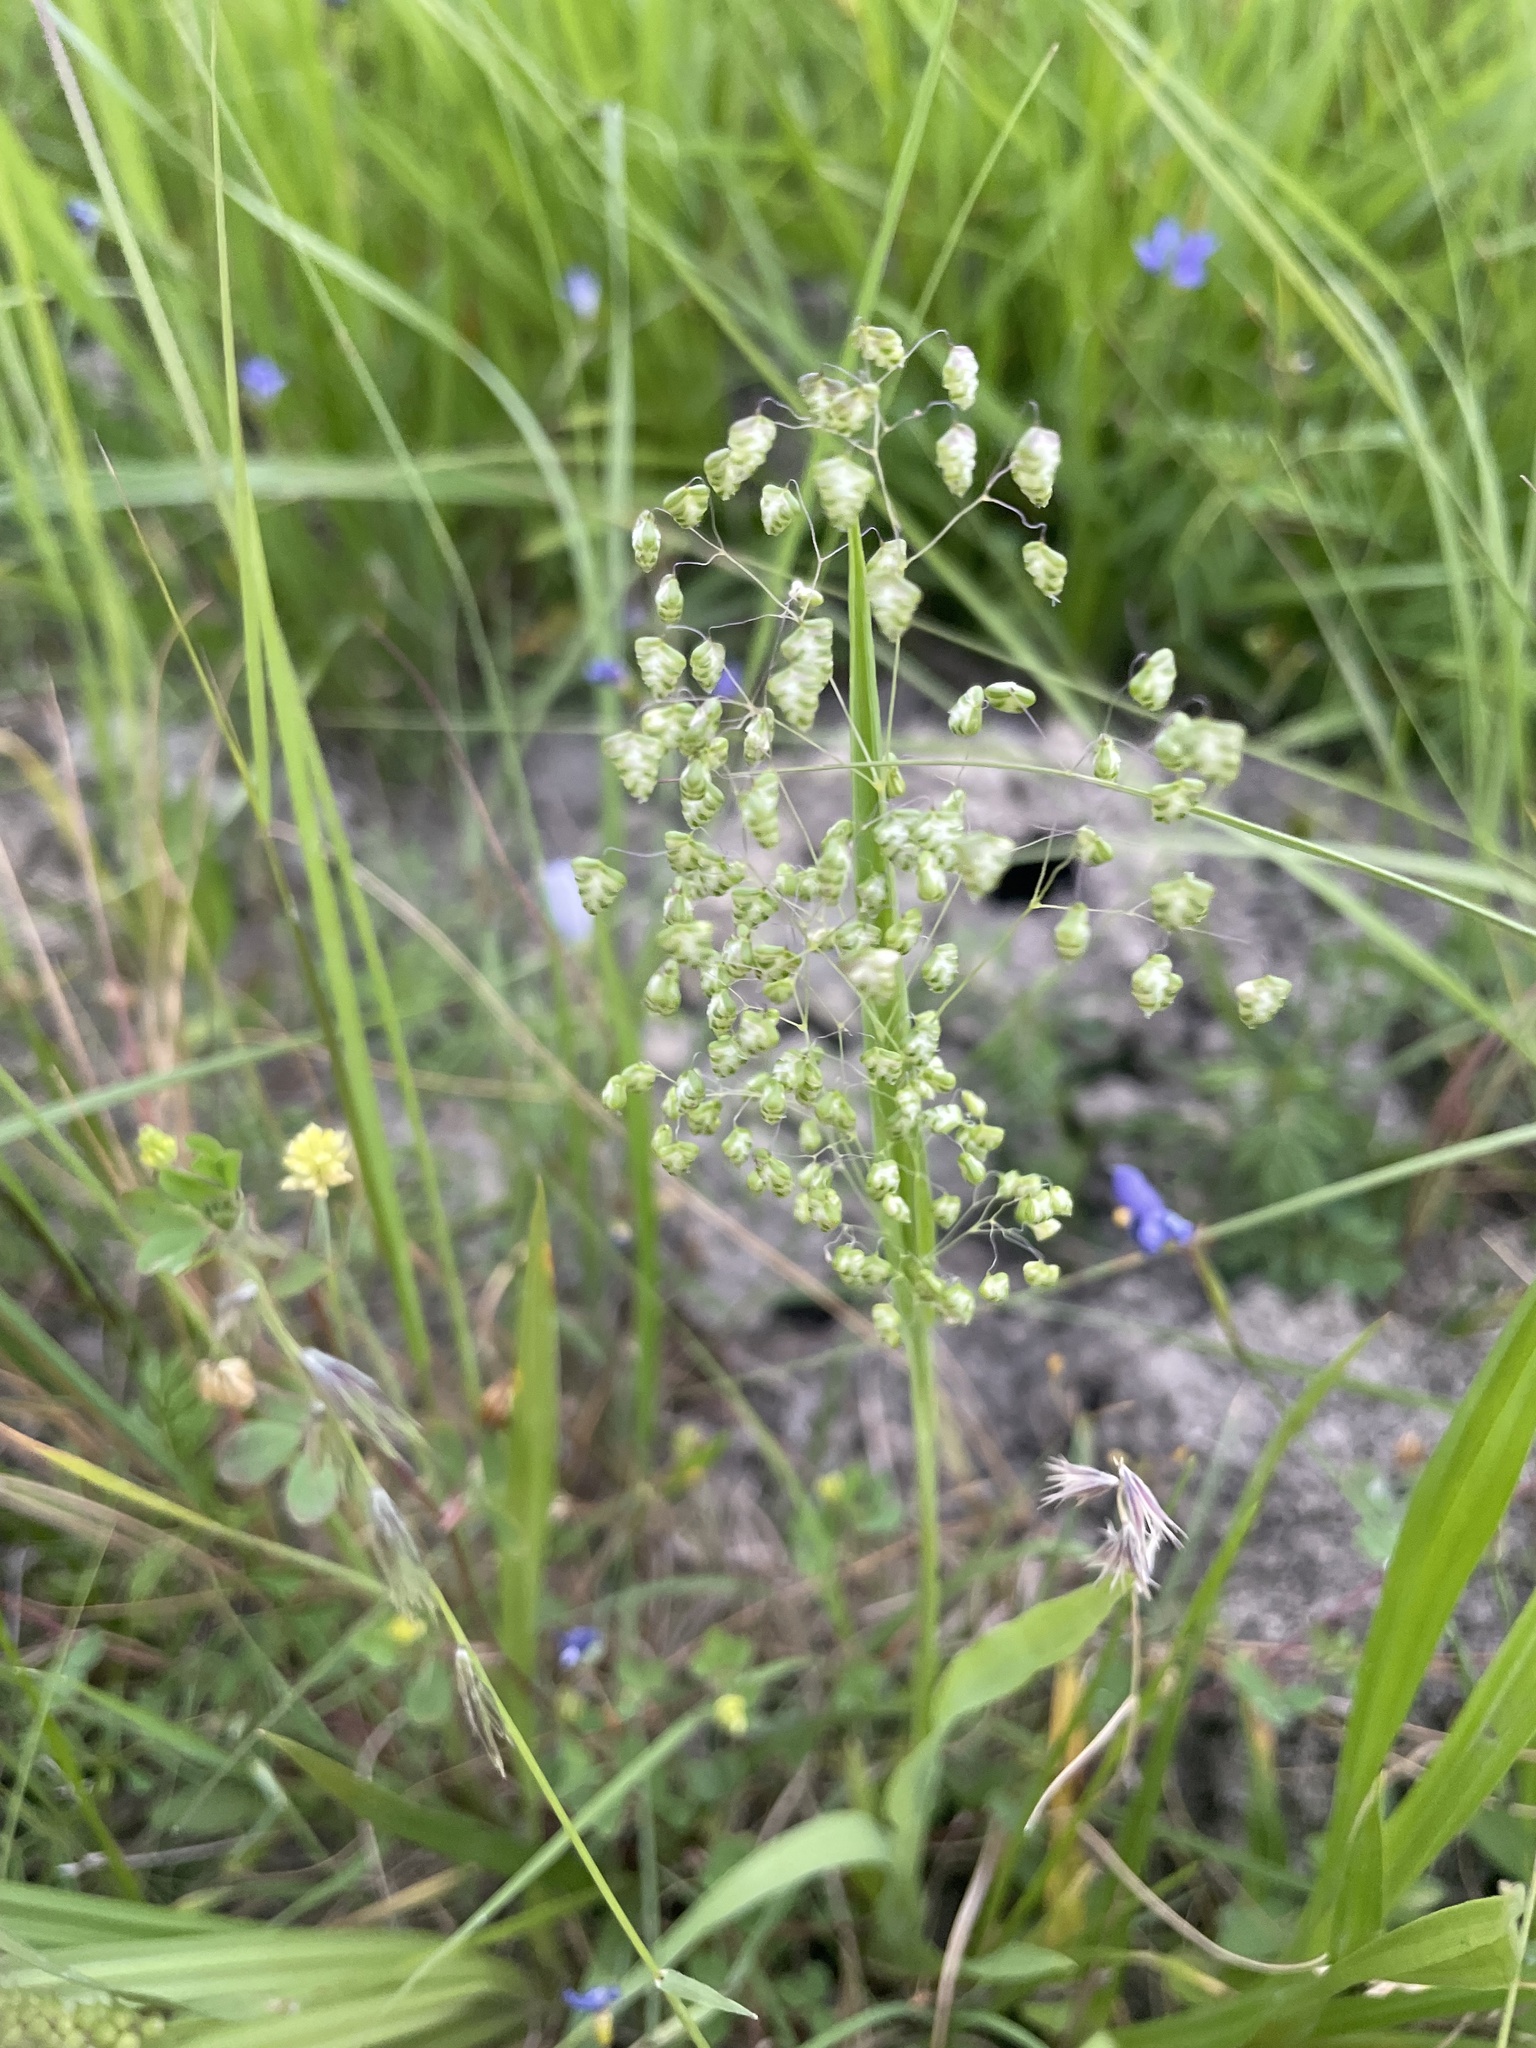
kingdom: Plantae
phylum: Tracheophyta
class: Liliopsida
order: Poales
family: Poaceae
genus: Briza
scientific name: Briza minor
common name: Lesser quaking-grass
